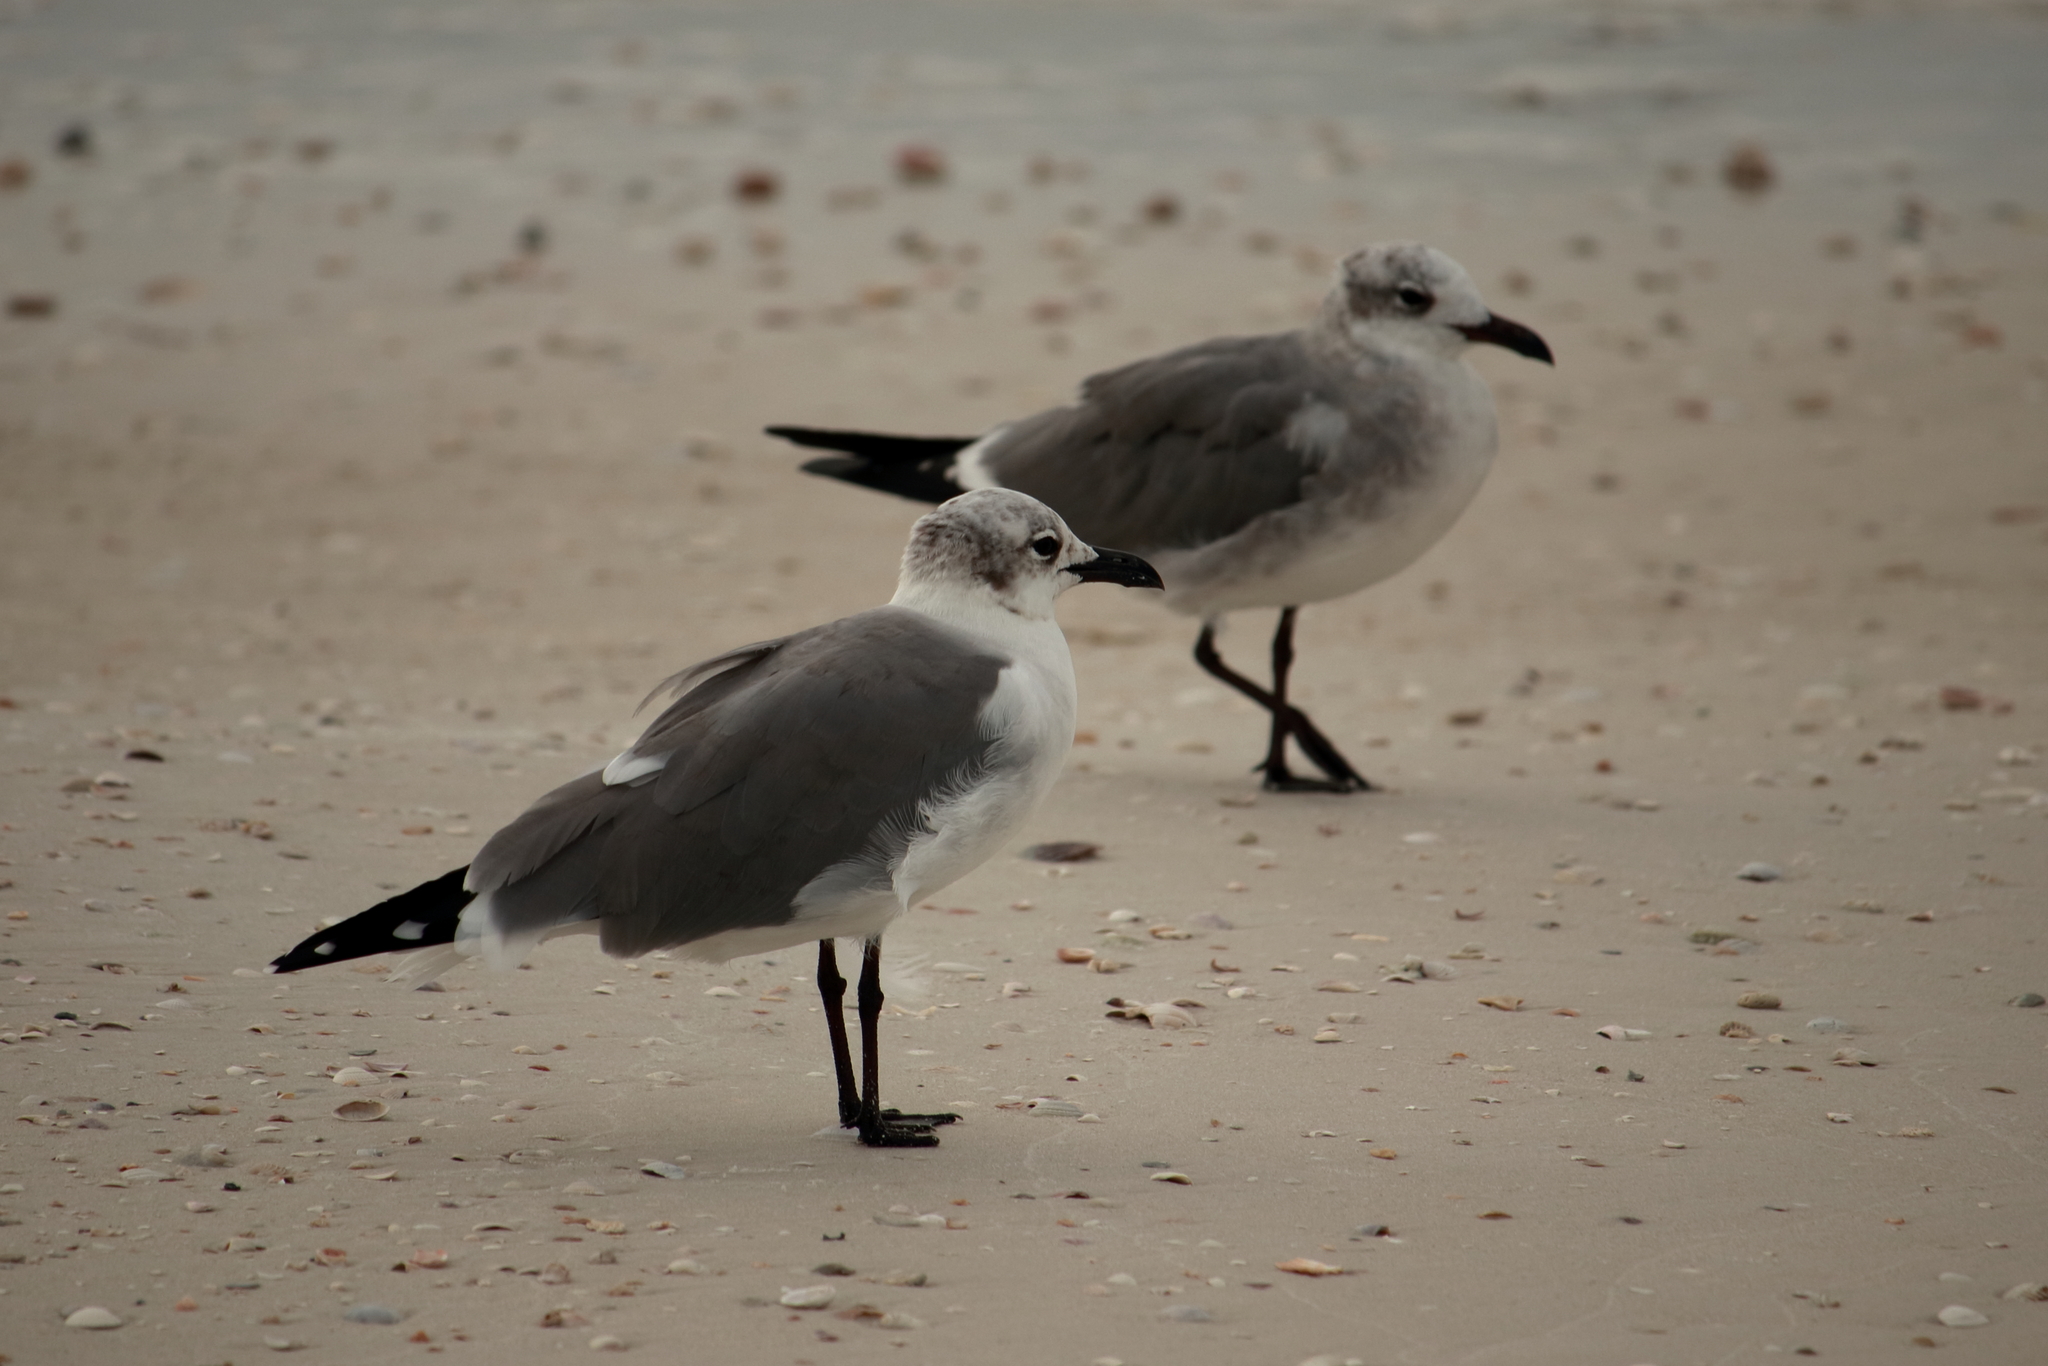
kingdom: Animalia
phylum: Chordata
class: Aves
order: Charadriiformes
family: Laridae
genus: Leucophaeus
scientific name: Leucophaeus atricilla
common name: Laughing gull
